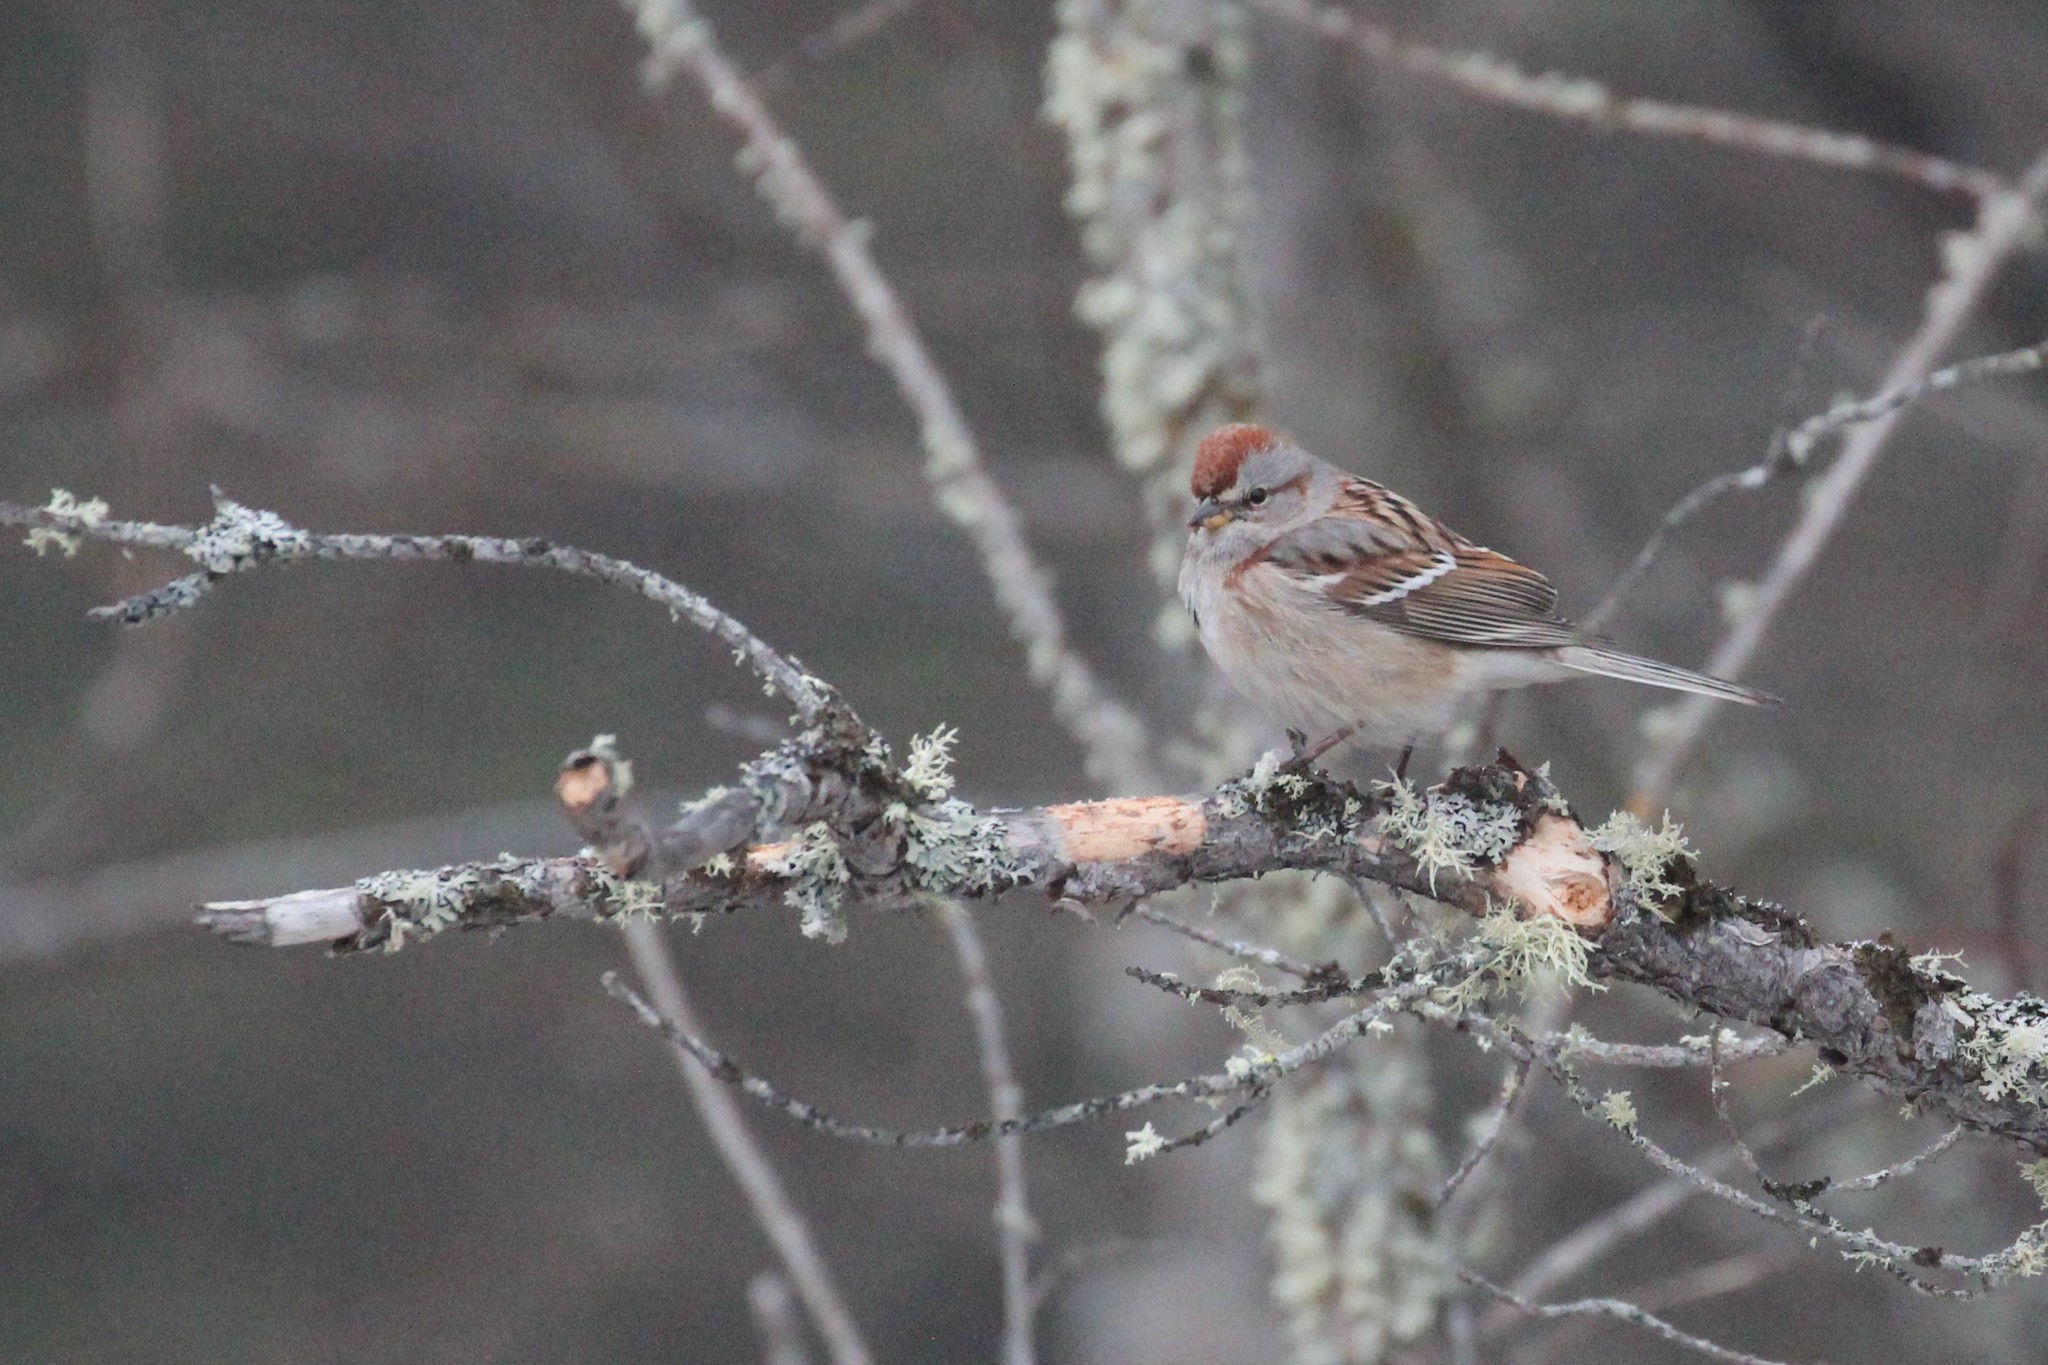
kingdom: Animalia
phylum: Chordata
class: Aves
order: Passeriformes
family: Passerellidae
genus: Spizelloides
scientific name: Spizelloides arborea
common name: American tree sparrow
